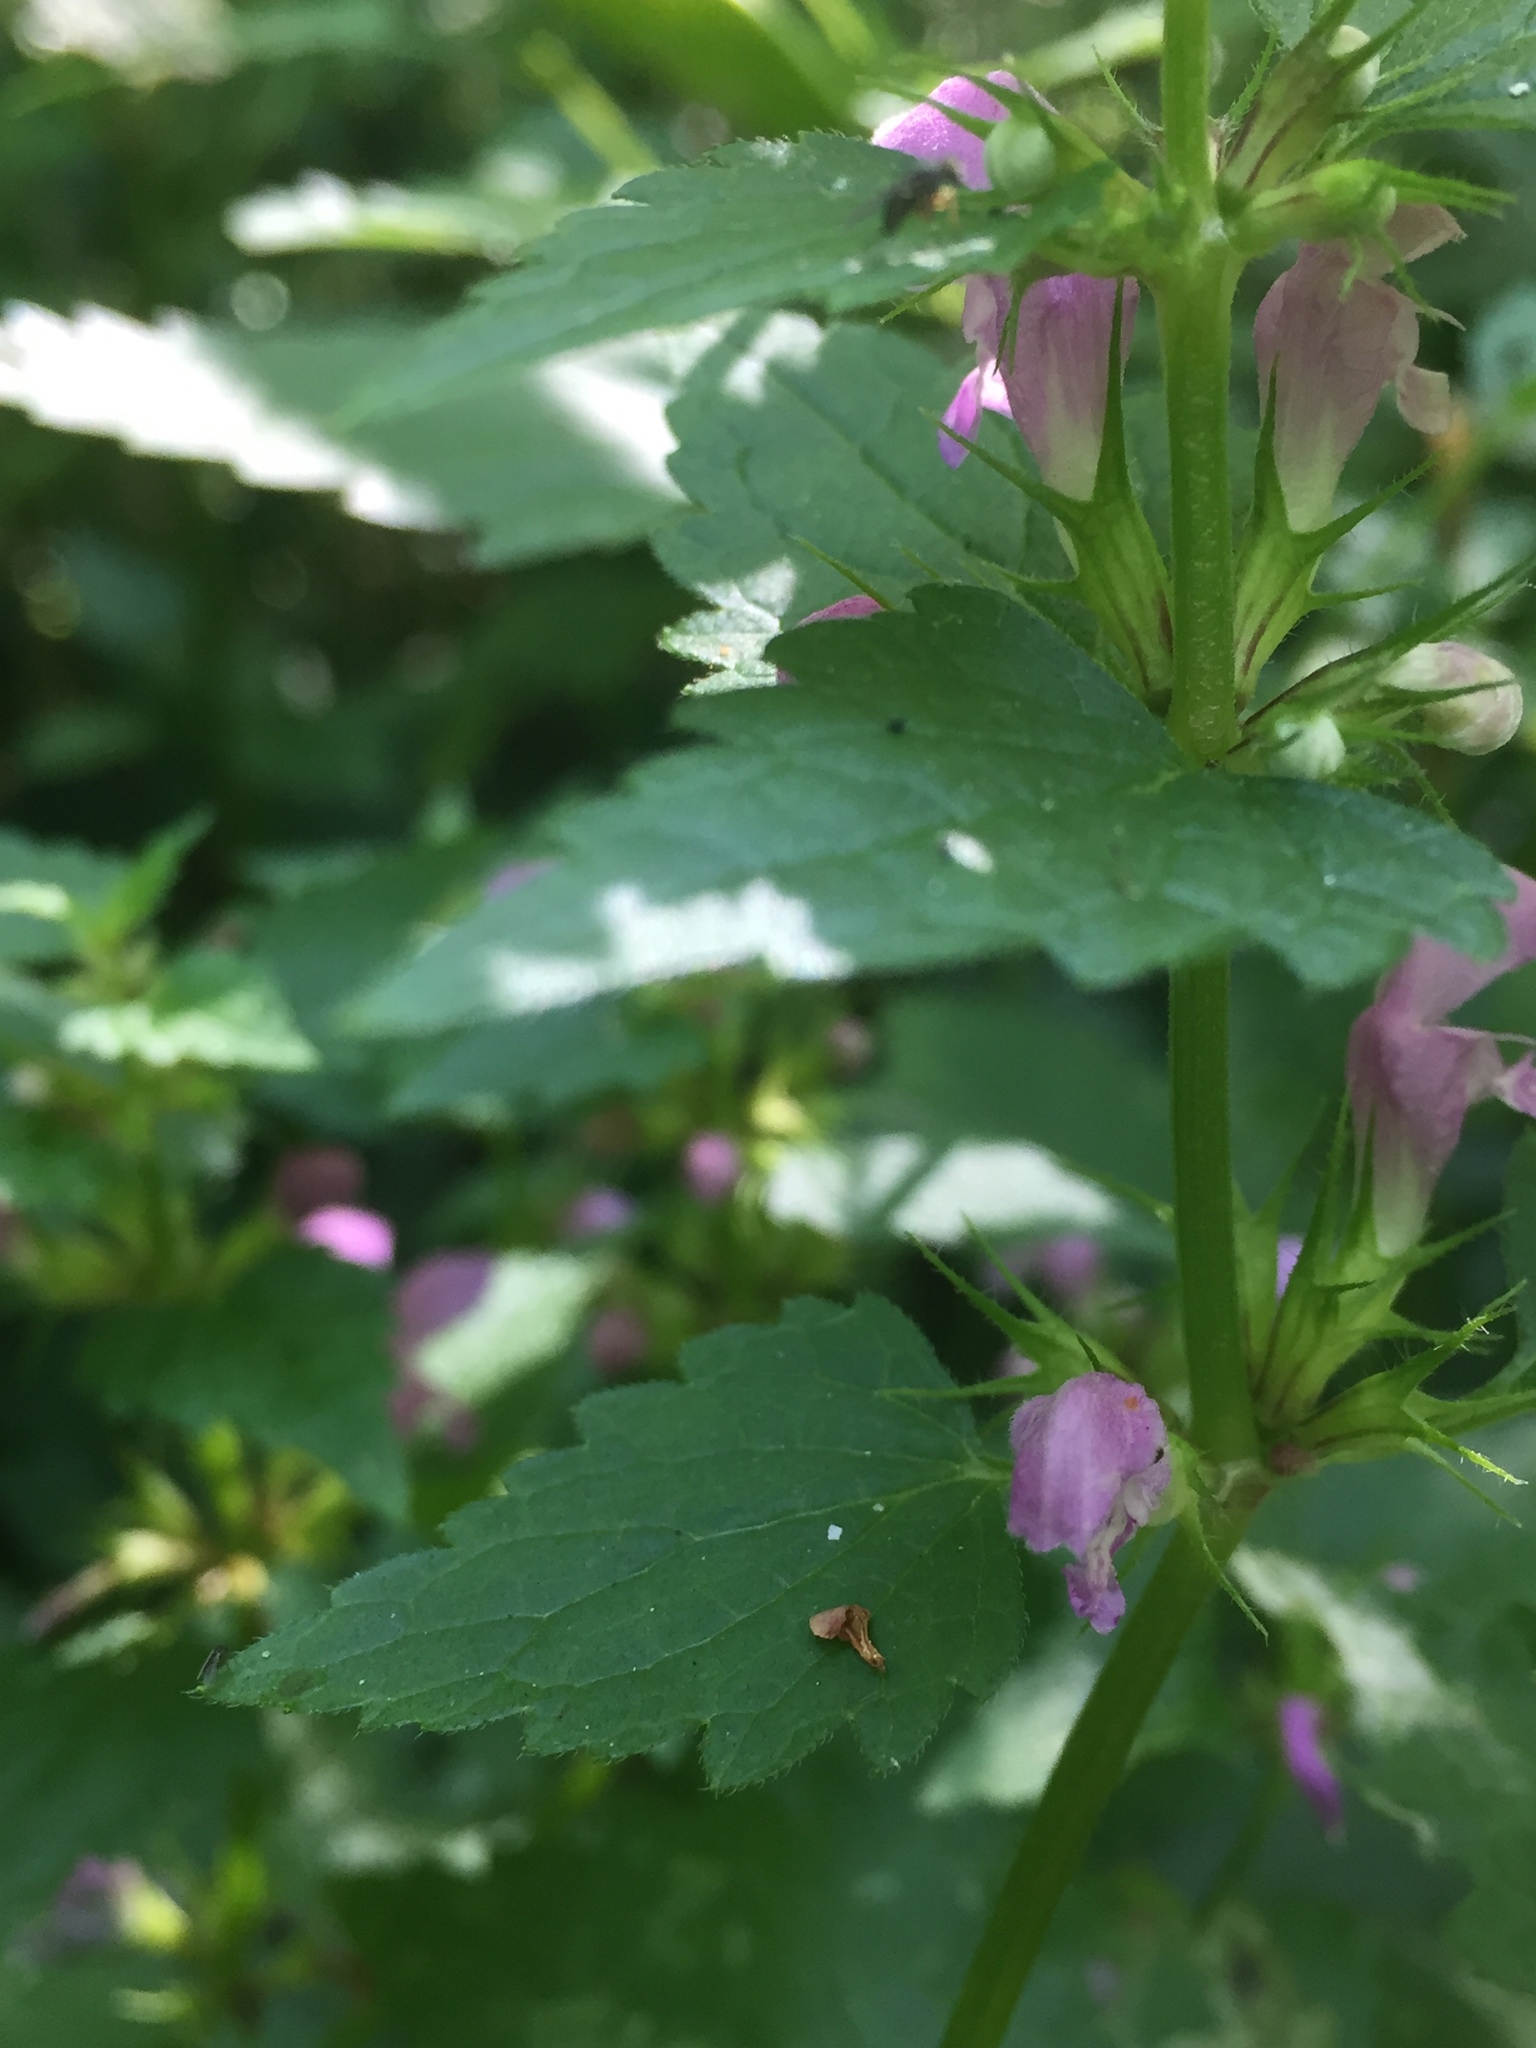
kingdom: Plantae
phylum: Tracheophyta
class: Magnoliopsida
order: Lamiales
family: Lamiaceae
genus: Lamium
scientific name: Lamium maculatum
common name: Spotted dead-nettle
